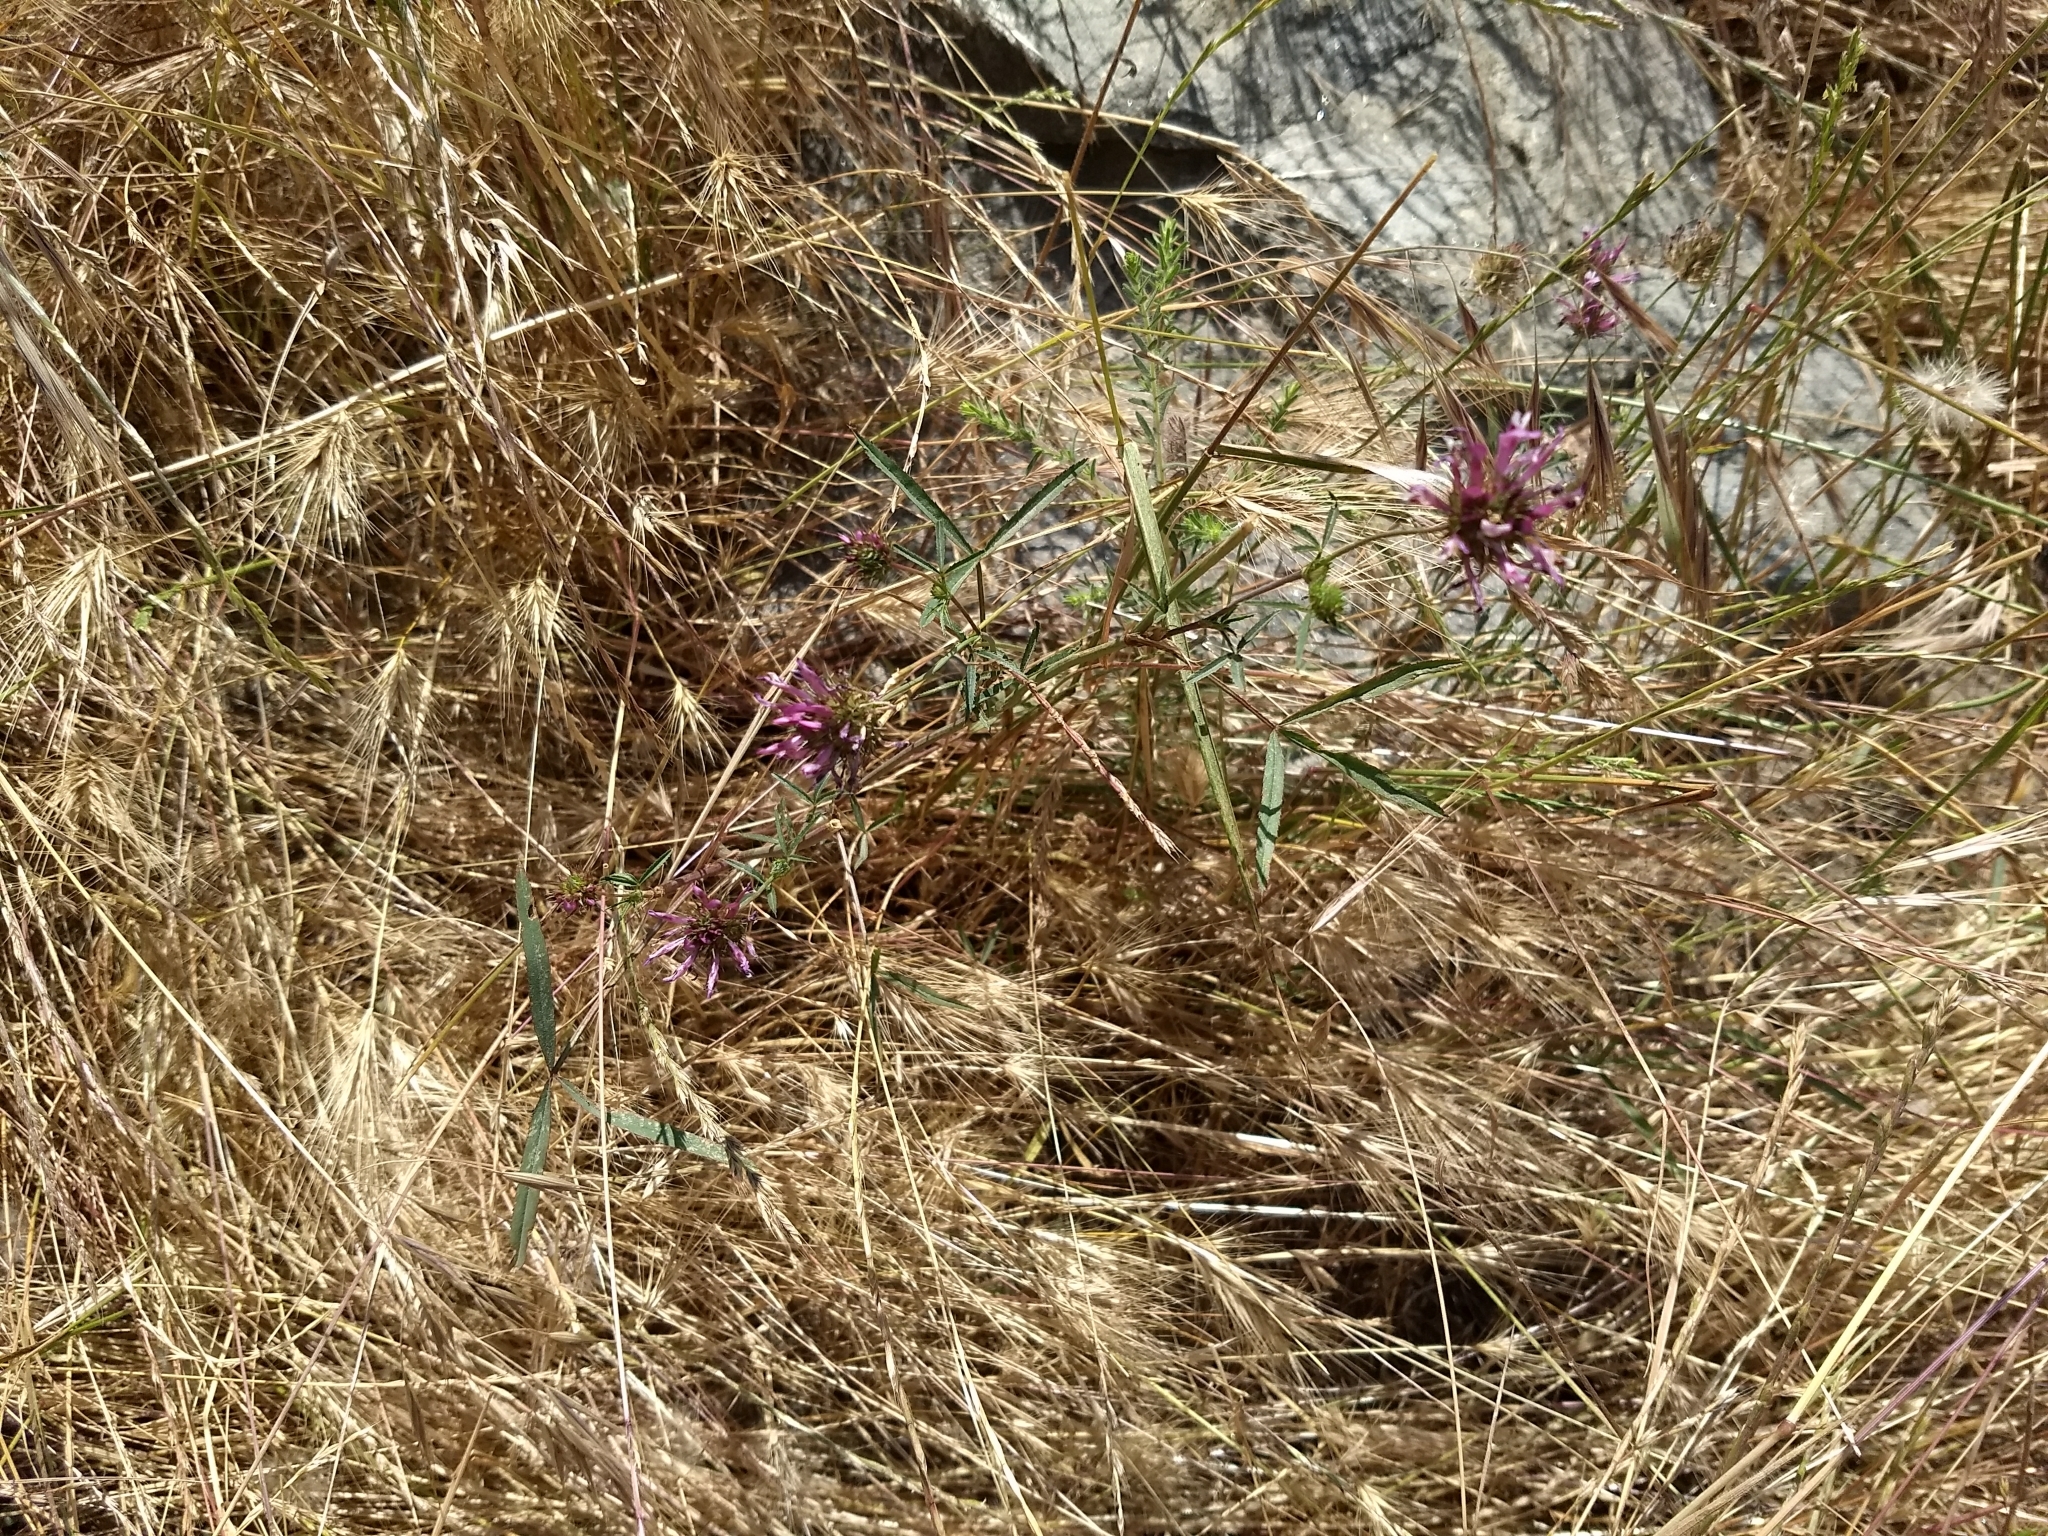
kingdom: Plantae
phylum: Tracheophyta
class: Magnoliopsida
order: Fabales
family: Fabaceae
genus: Trifolium
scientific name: Trifolium willdenovii
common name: Tomcat clover
